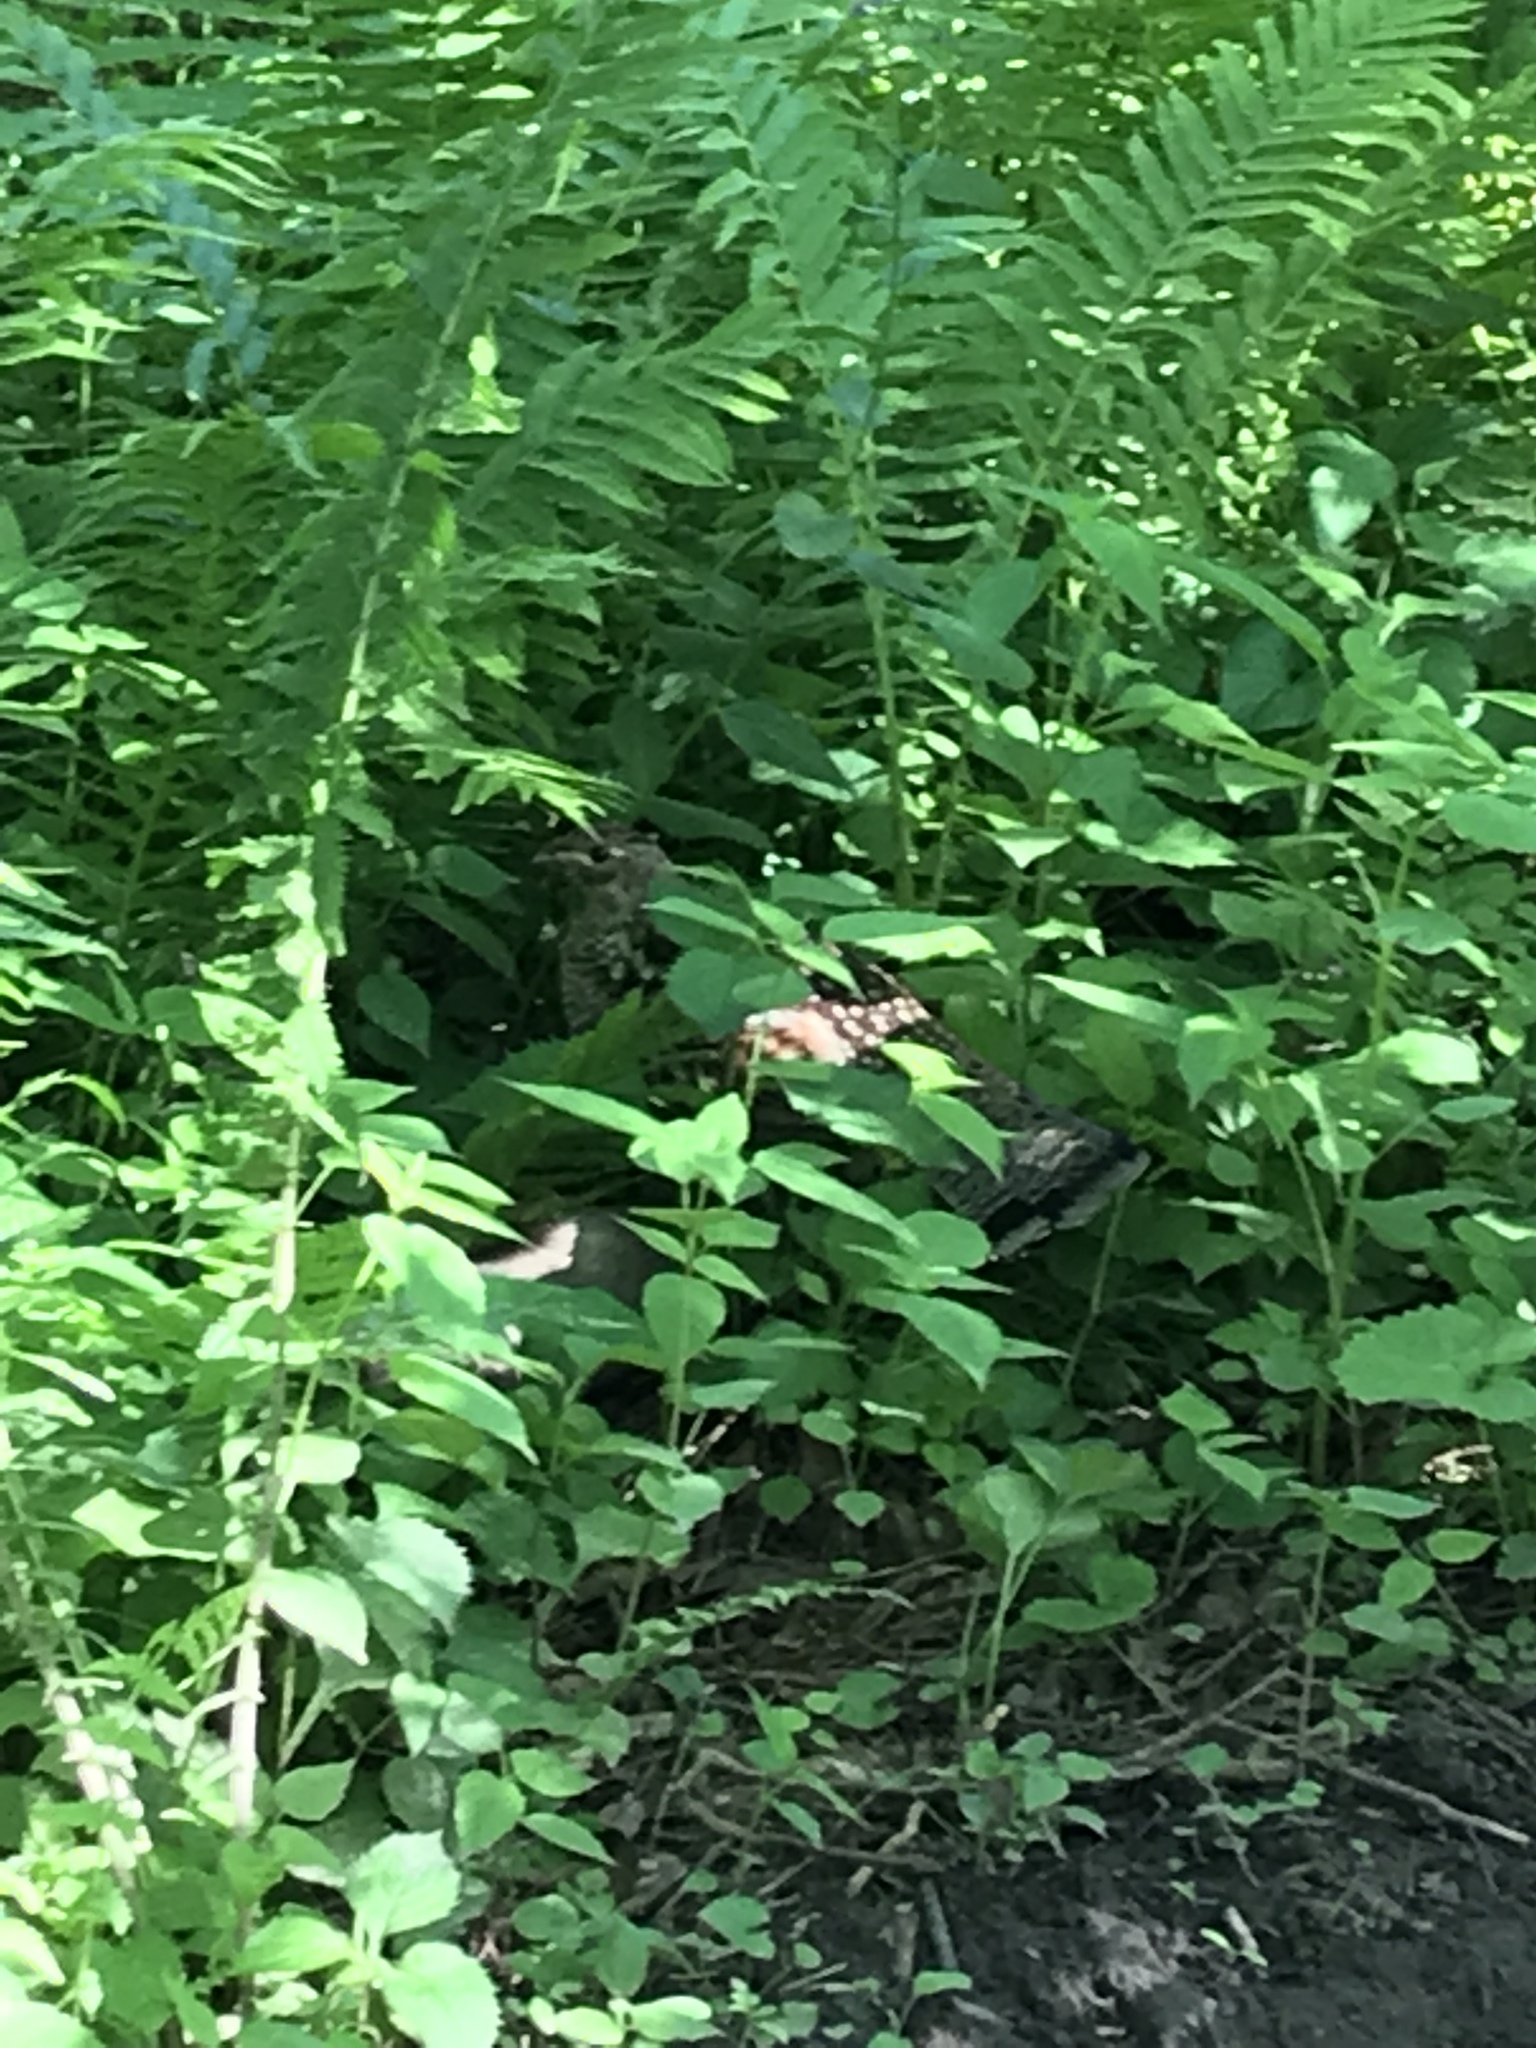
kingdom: Animalia
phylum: Chordata
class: Aves
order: Galliformes
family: Phasianidae
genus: Bonasa
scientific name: Bonasa umbellus
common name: Ruffed grouse
